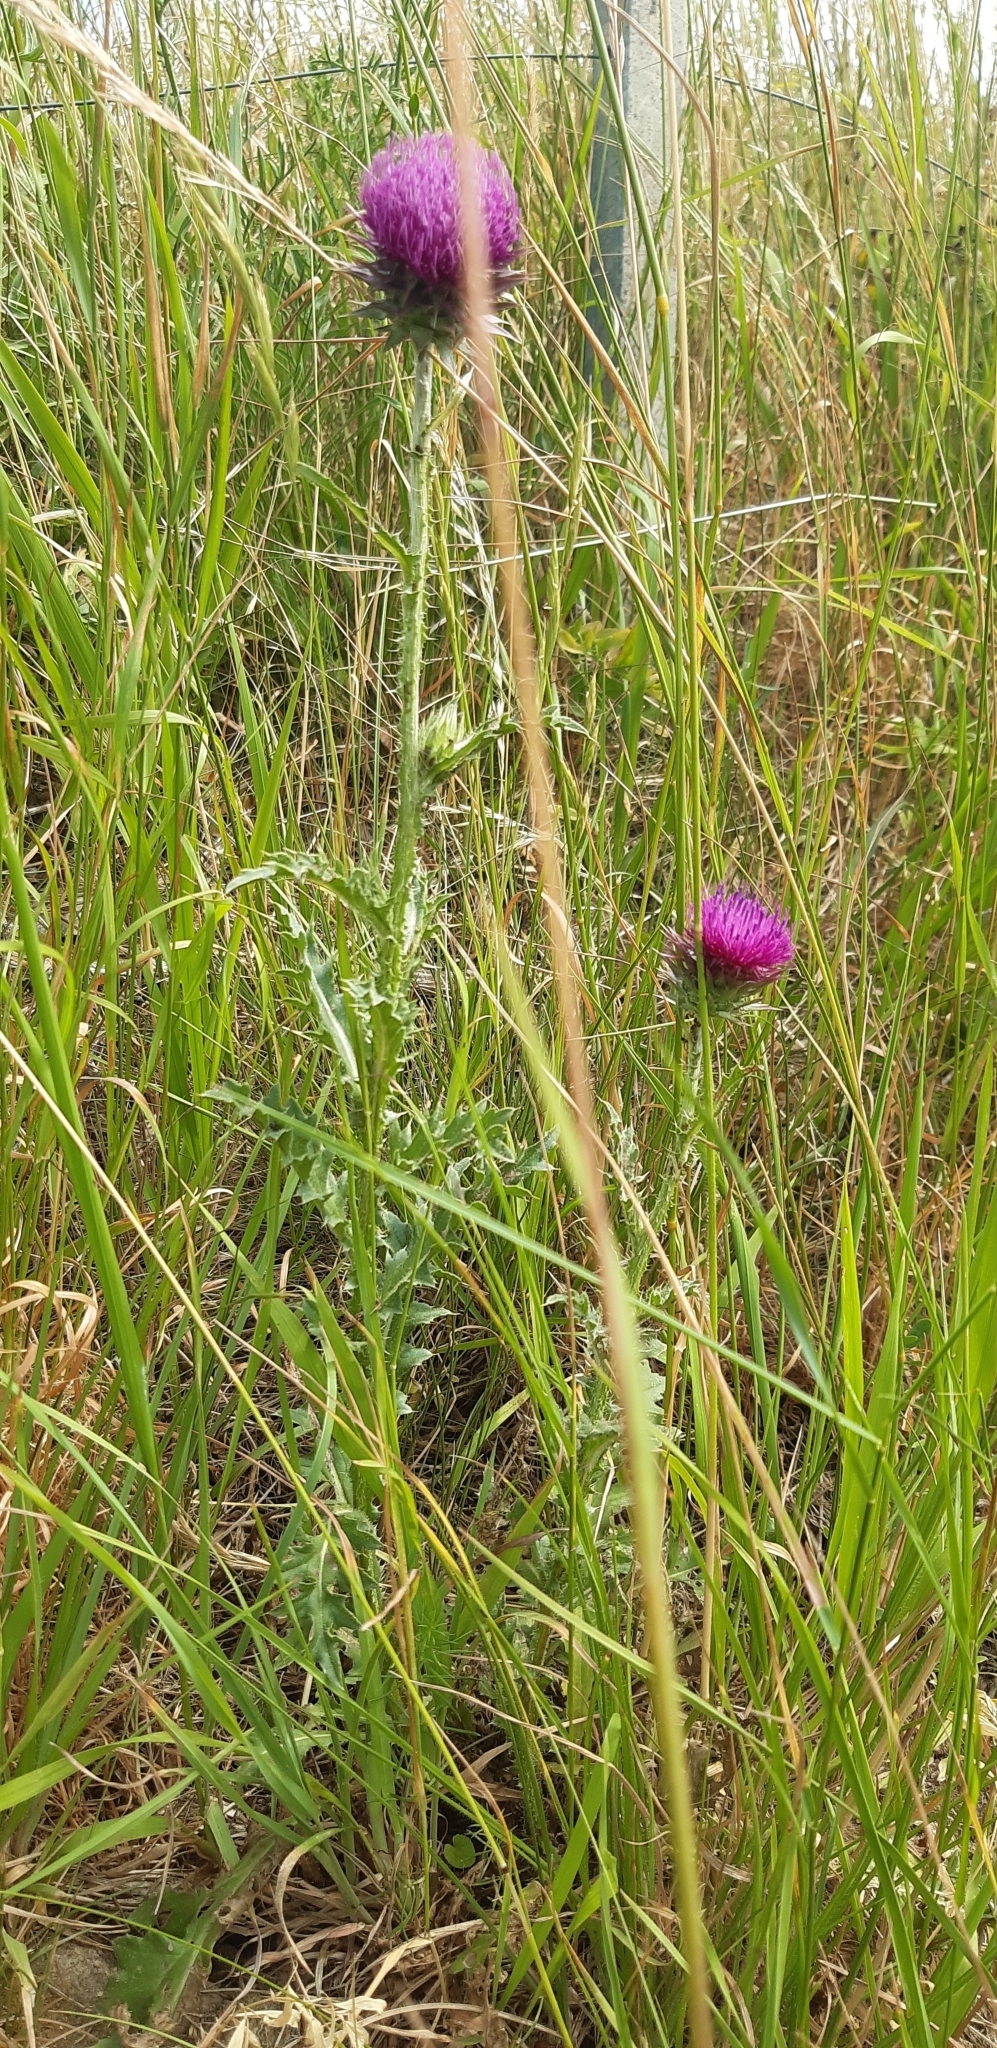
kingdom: Plantae
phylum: Tracheophyta
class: Magnoliopsida
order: Asterales
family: Asteraceae
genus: Carduus
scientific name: Carduus nutans
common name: Musk thistle
